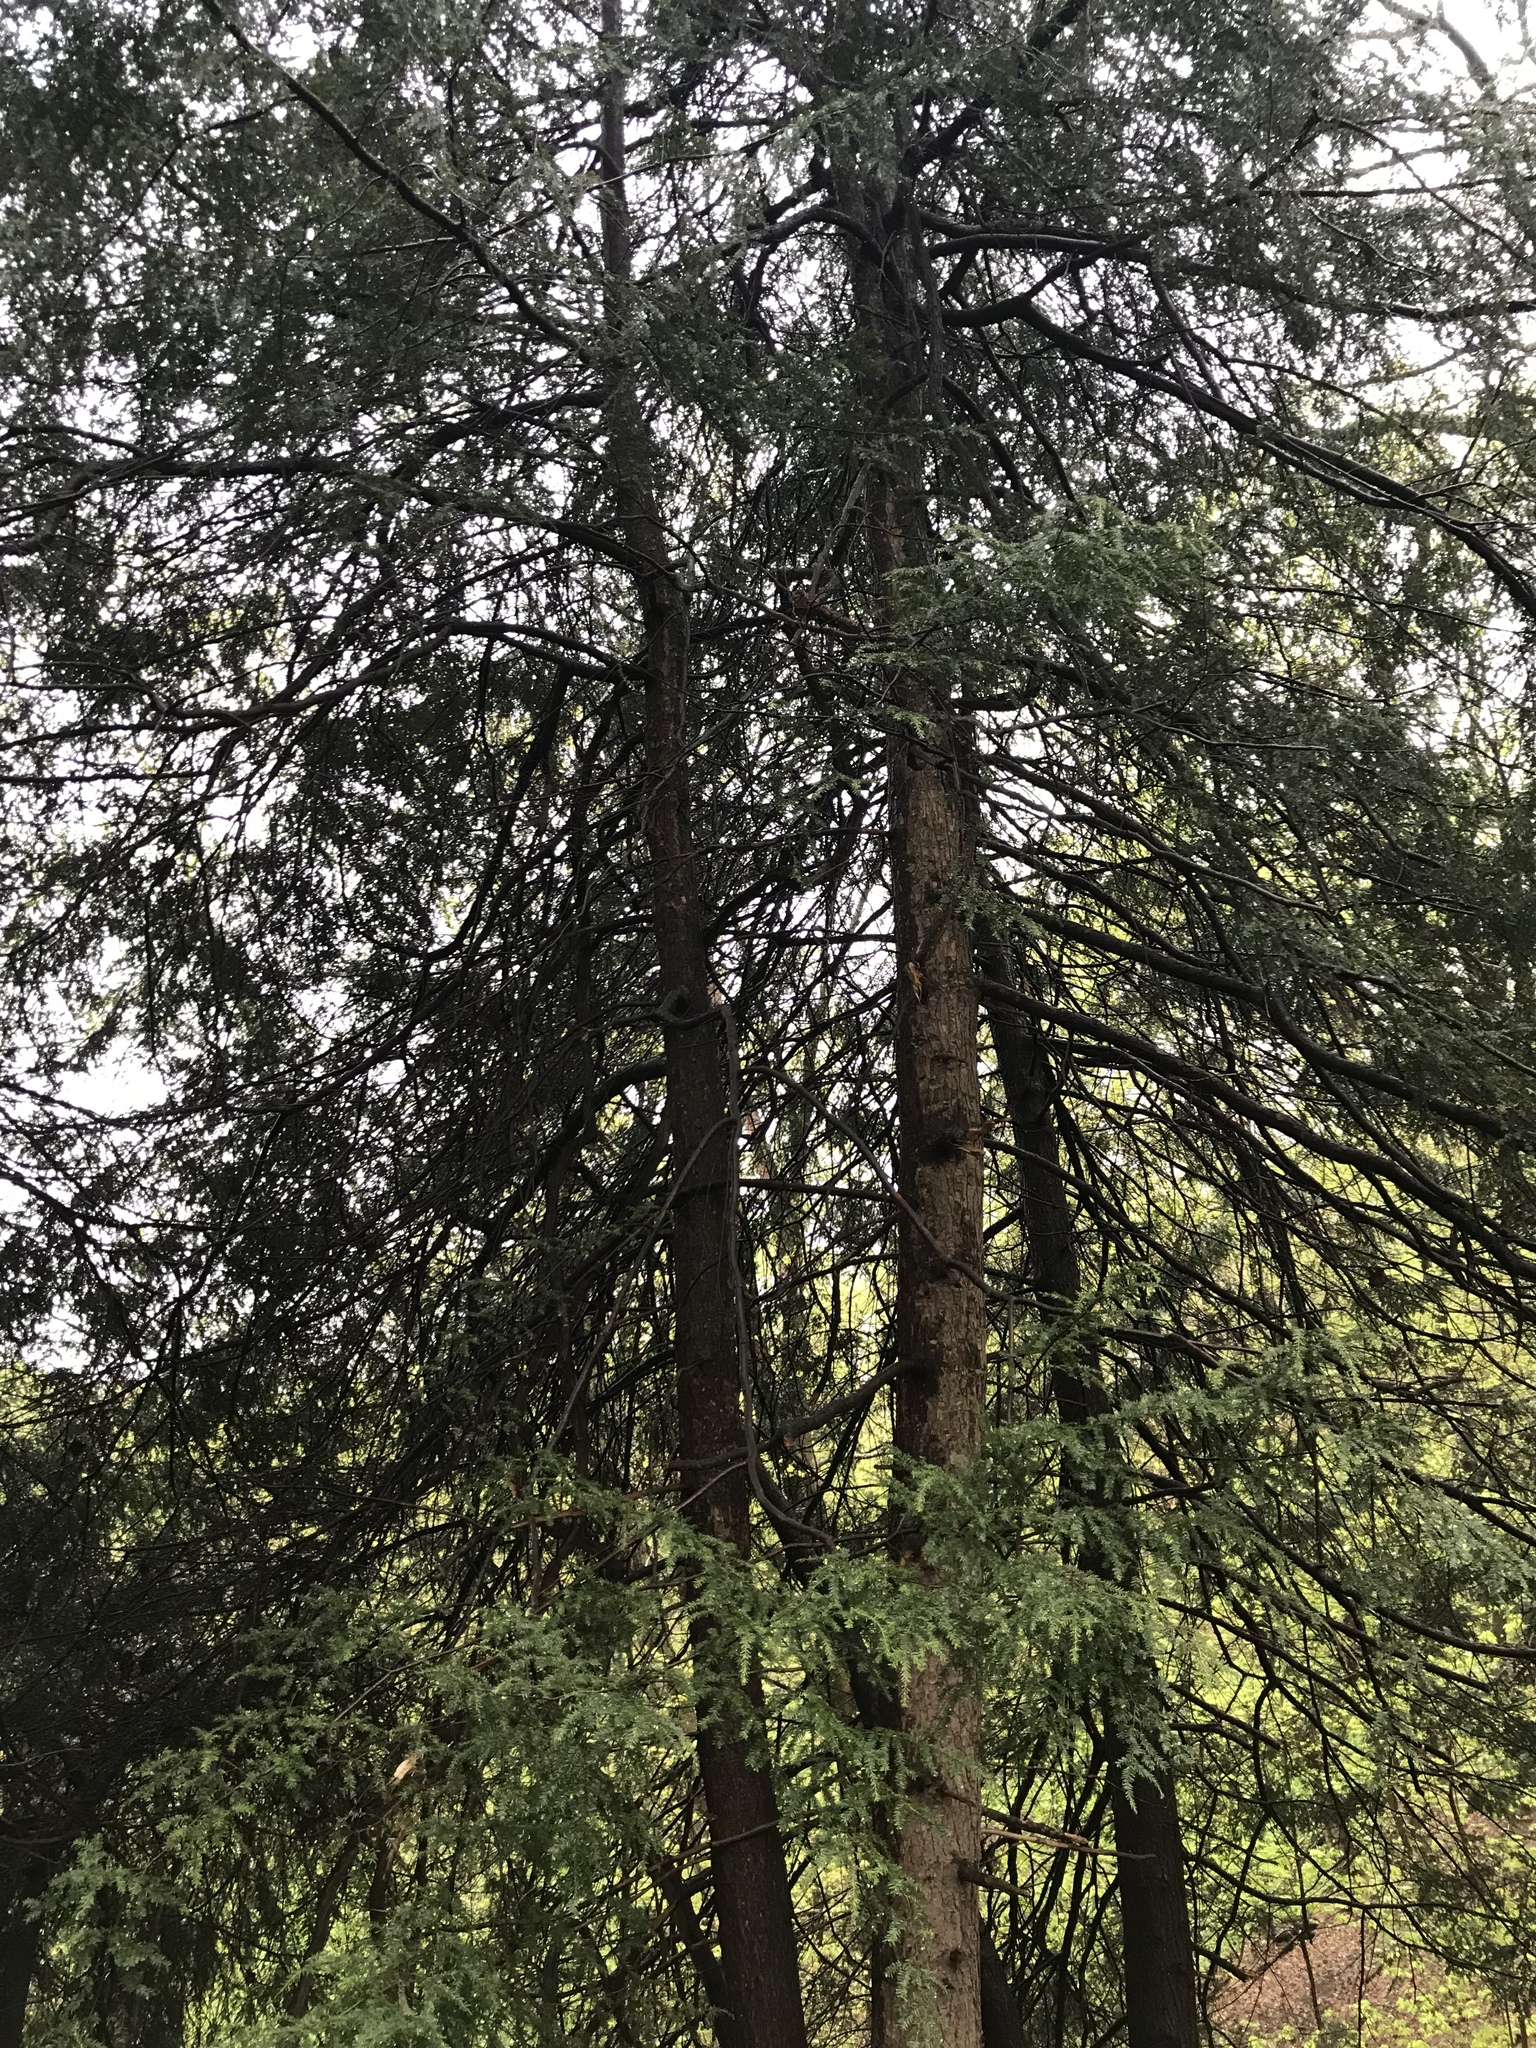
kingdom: Plantae
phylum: Tracheophyta
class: Pinopsida
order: Pinales
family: Pinaceae
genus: Tsuga
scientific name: Tsuga canadensis
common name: Eastern hemlock
